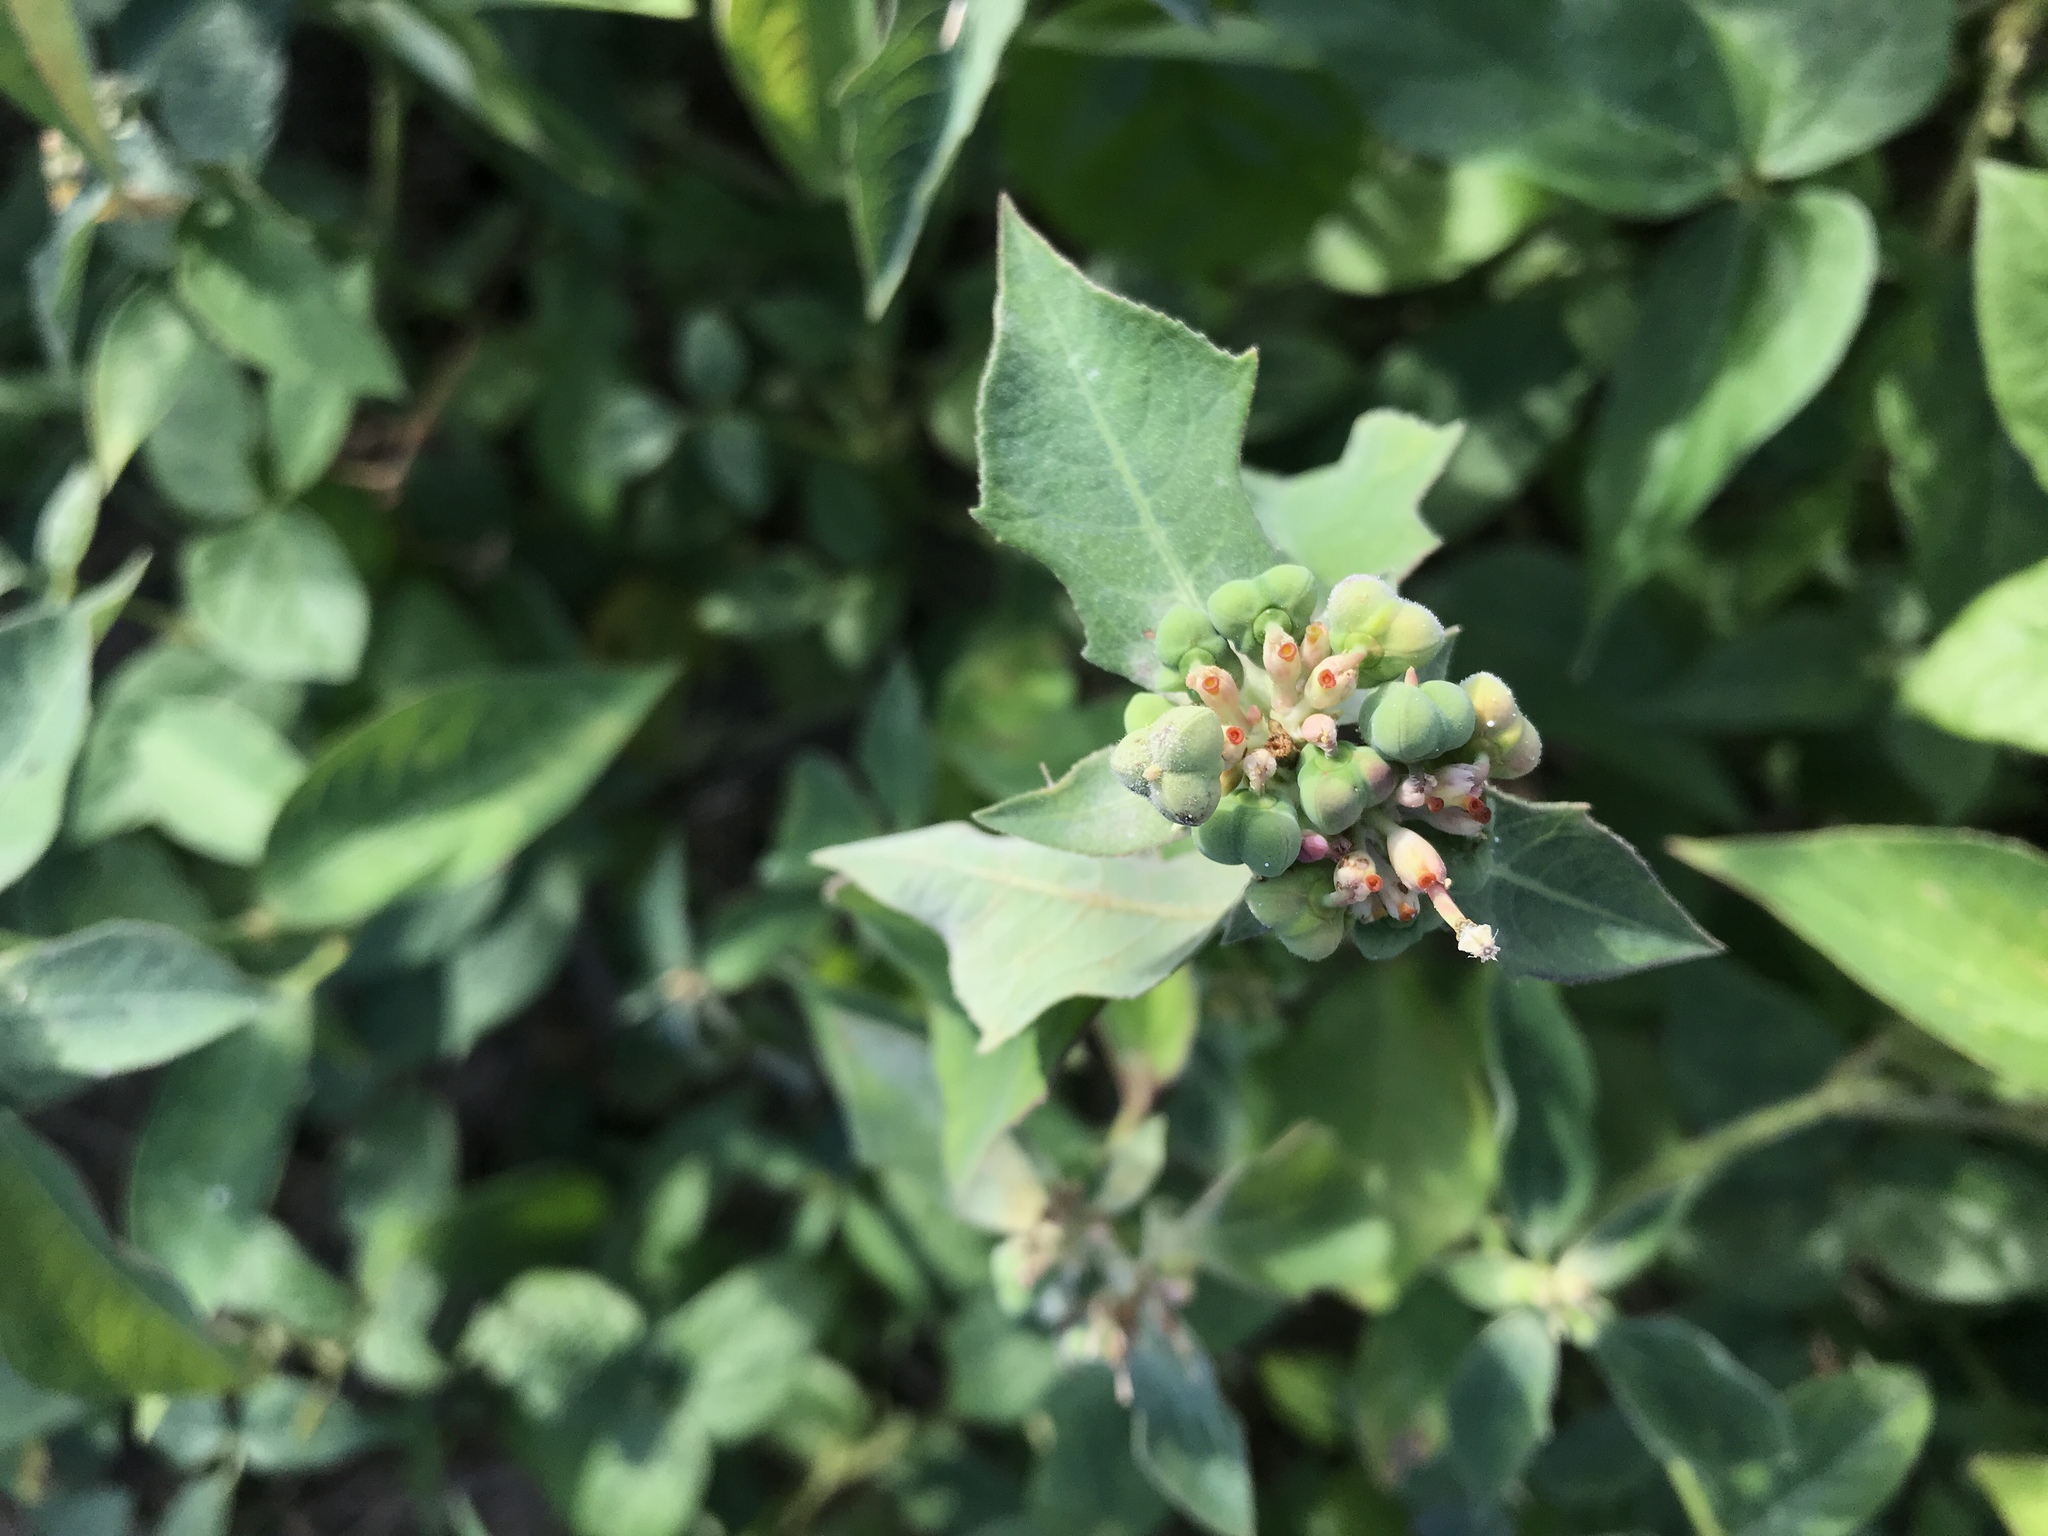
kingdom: Plantae
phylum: Tracheophyta
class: Magnoliopsida
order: Malpighiales
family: Euphorbiaceae
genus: Euphorbia
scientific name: Euphorbia heterophylla
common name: Mexican fireplant
